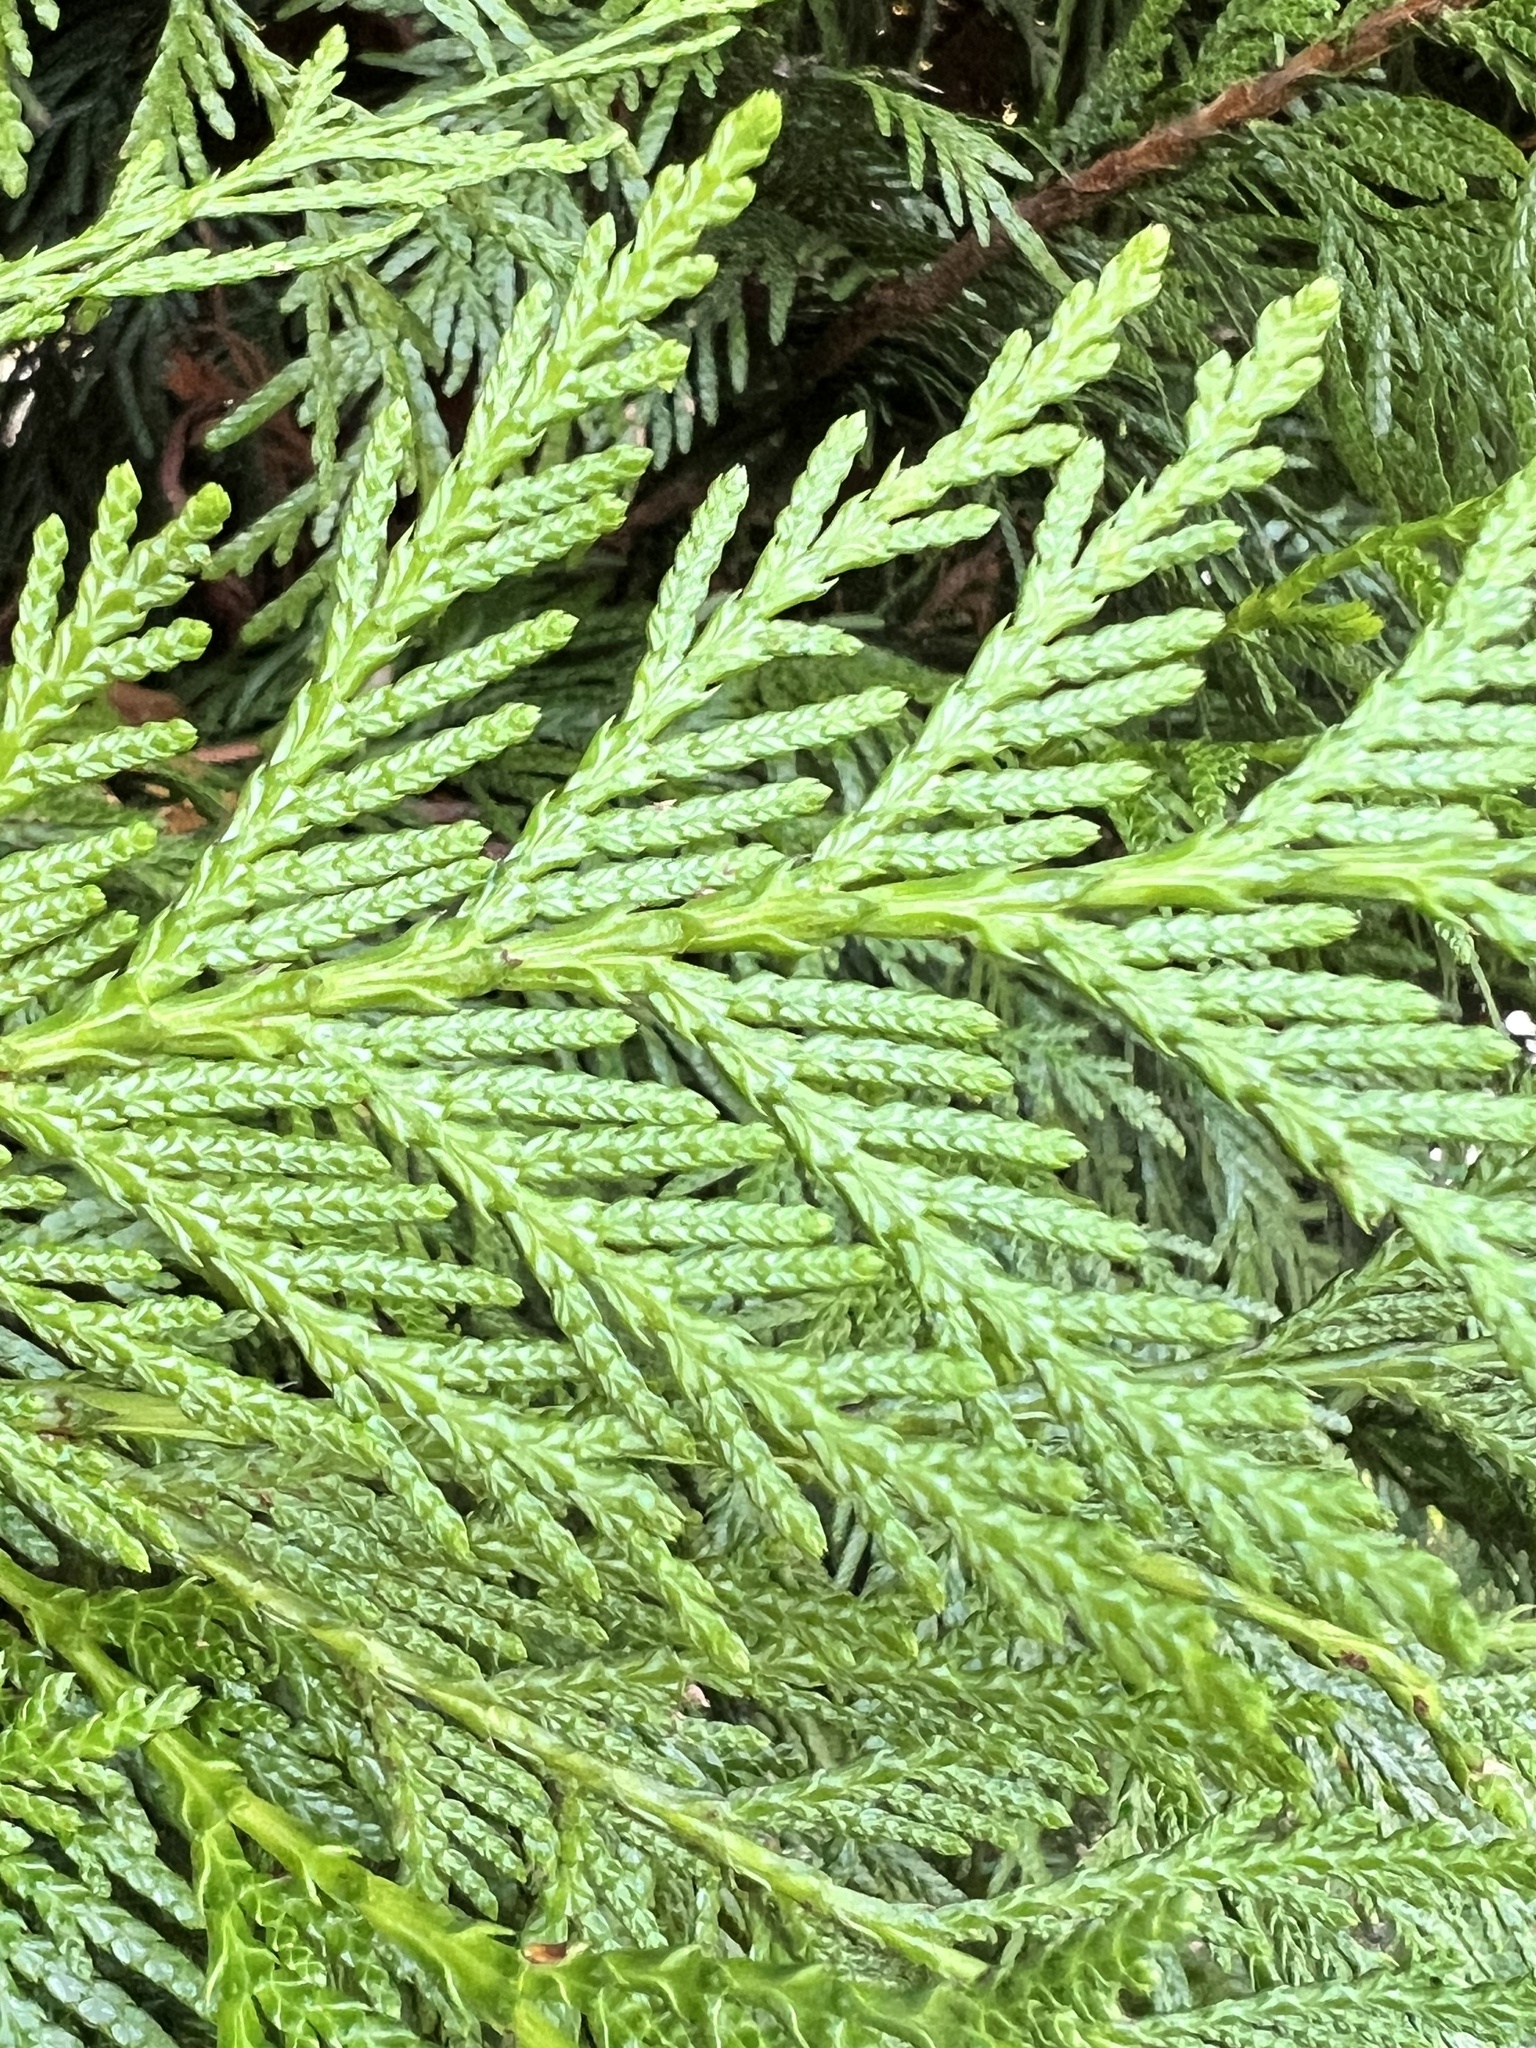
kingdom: Plantae
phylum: Tracheophyta
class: Pinopsida
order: Pinales
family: Cupressaceae
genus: Thuja
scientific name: Thuja plicata
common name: Western red-cedar
